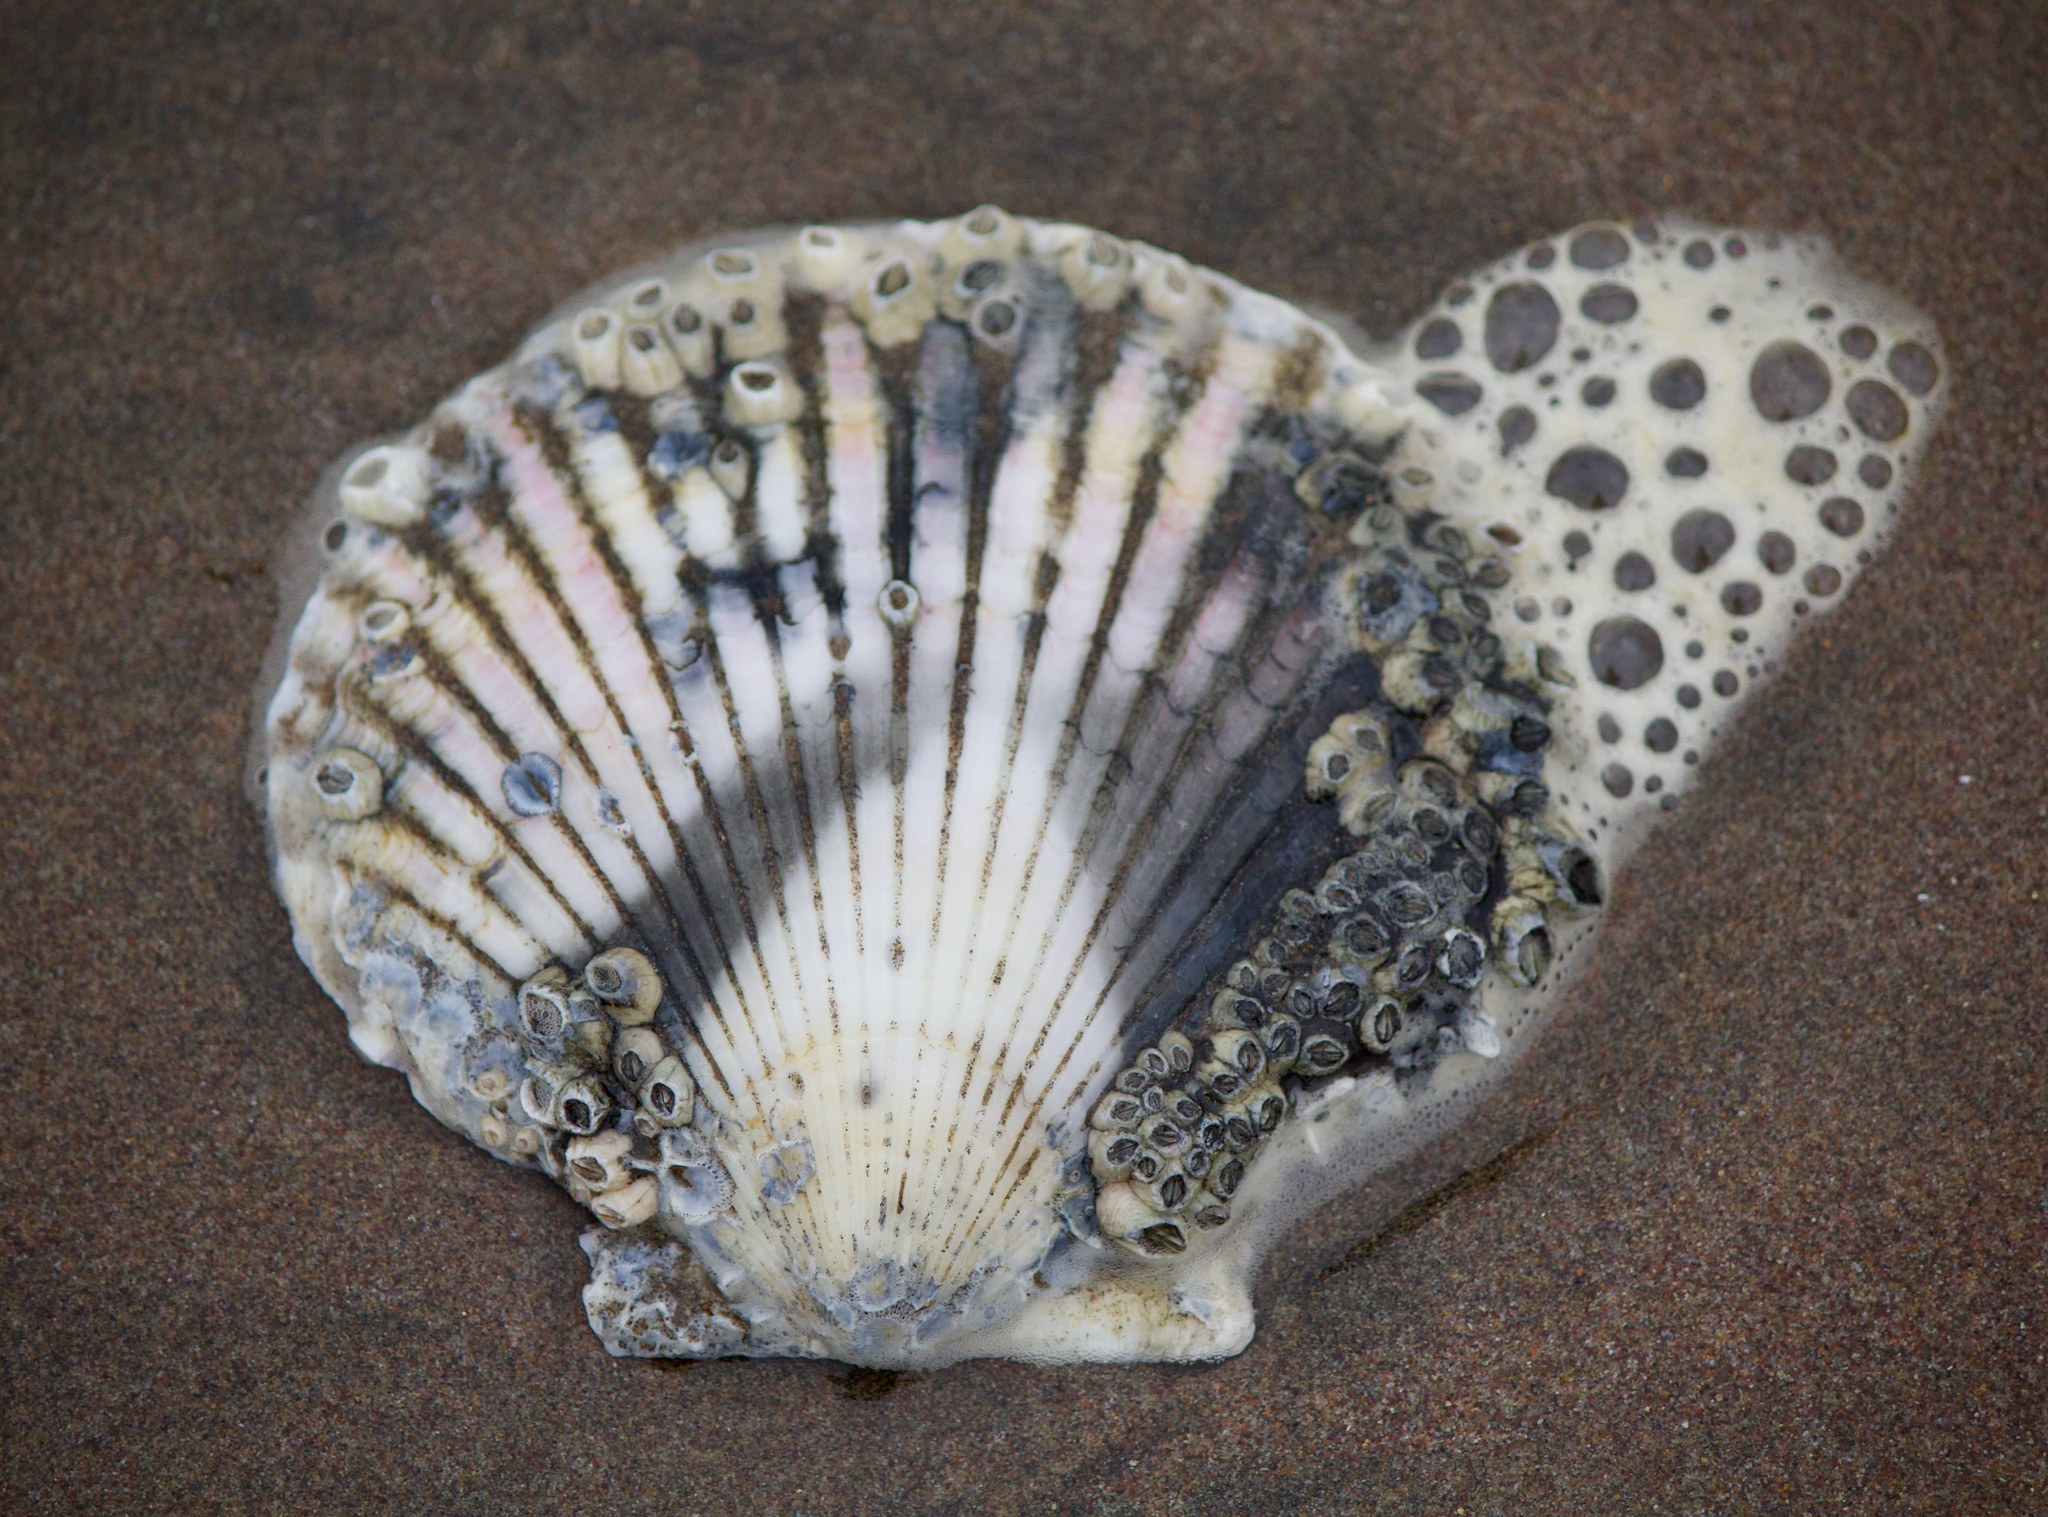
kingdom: Animalia
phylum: Mollusca
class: Bivalvia
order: Pectinida
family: Pectinidae
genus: Argopecten
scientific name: Argopecten purpuratus
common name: Peruvian scallop
